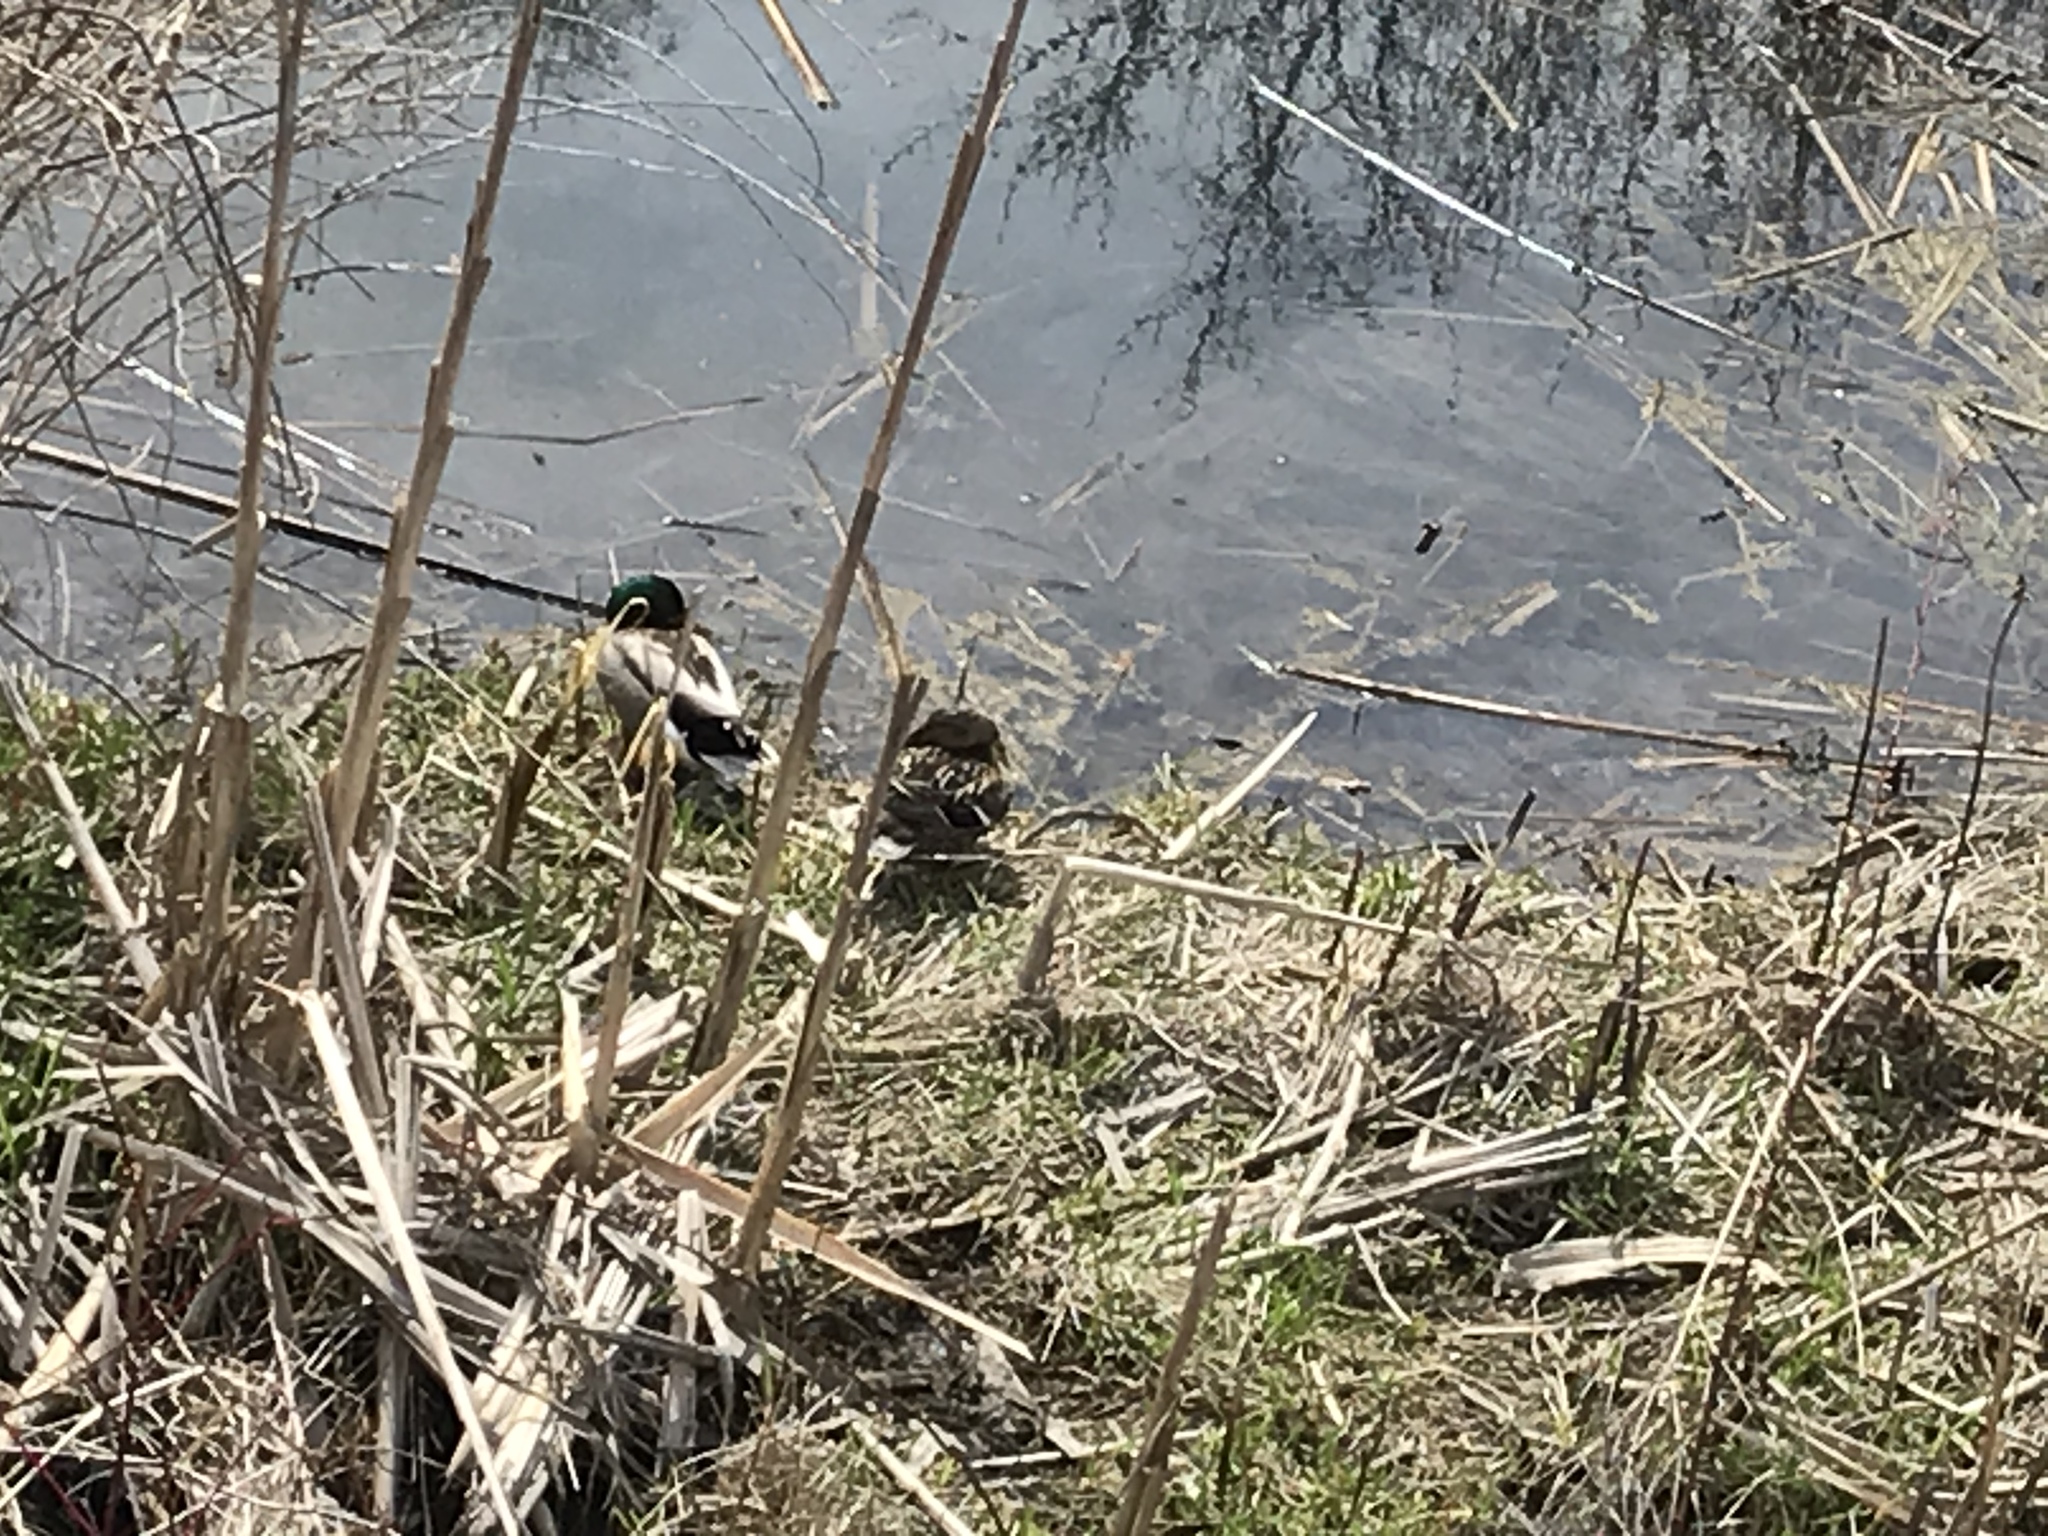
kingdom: Animalia
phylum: Chordata
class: Aves
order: Anseriformes
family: Anatidae
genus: Anas
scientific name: Anas platyrhynchos
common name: Mallard
